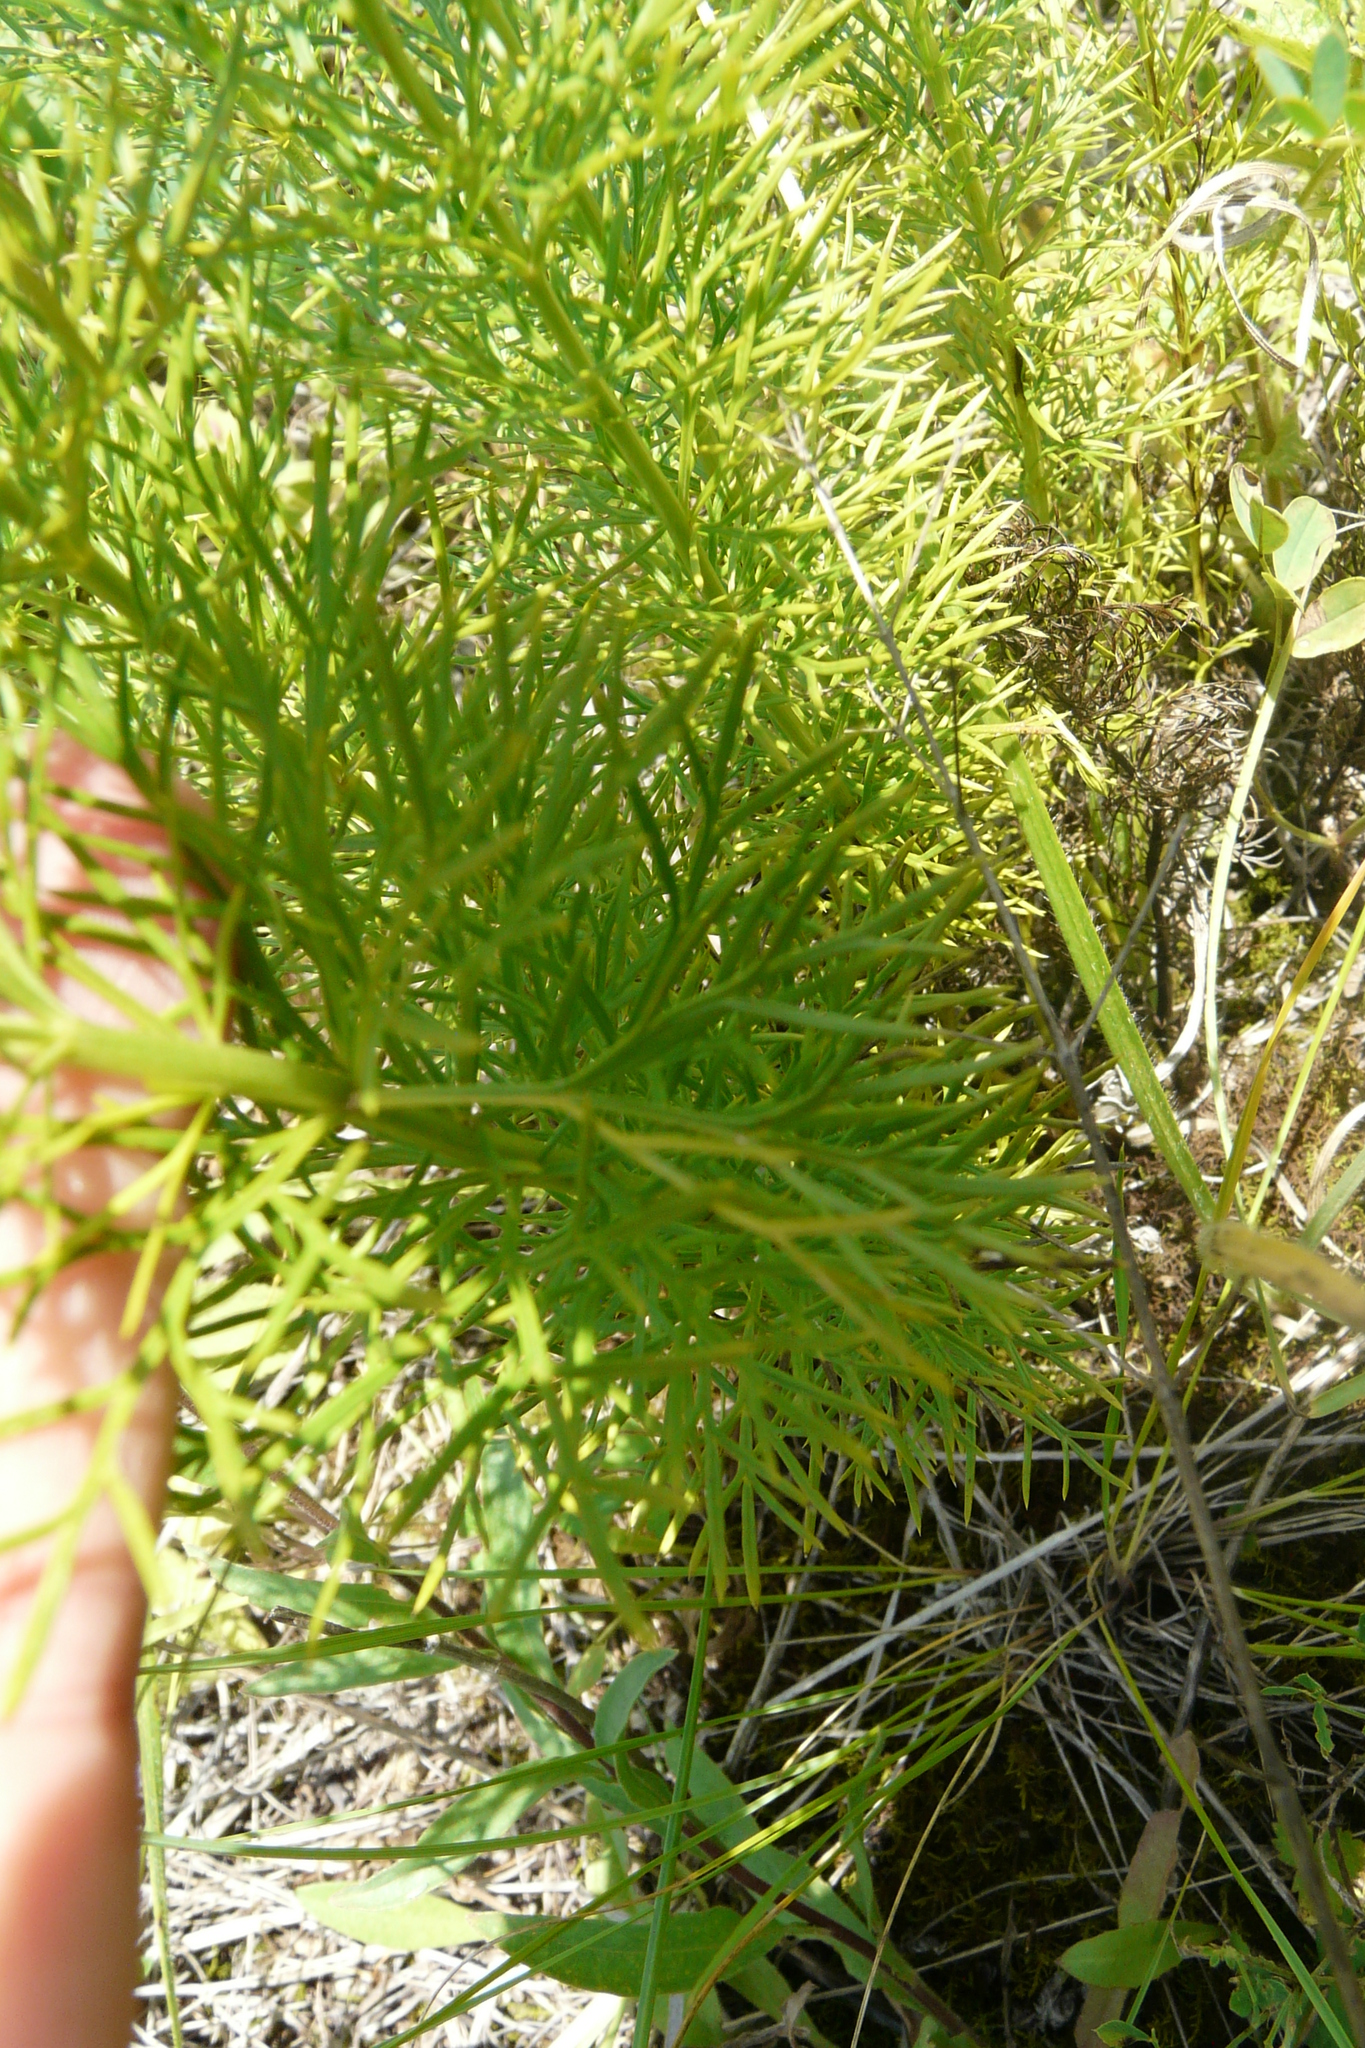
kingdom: Plantae
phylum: Tracheophyta
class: Magnoliopsida
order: Ranunculales
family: Ranunculaceae
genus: Adonis
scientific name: Adonis vernalis
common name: Yellow pheasants-eye
